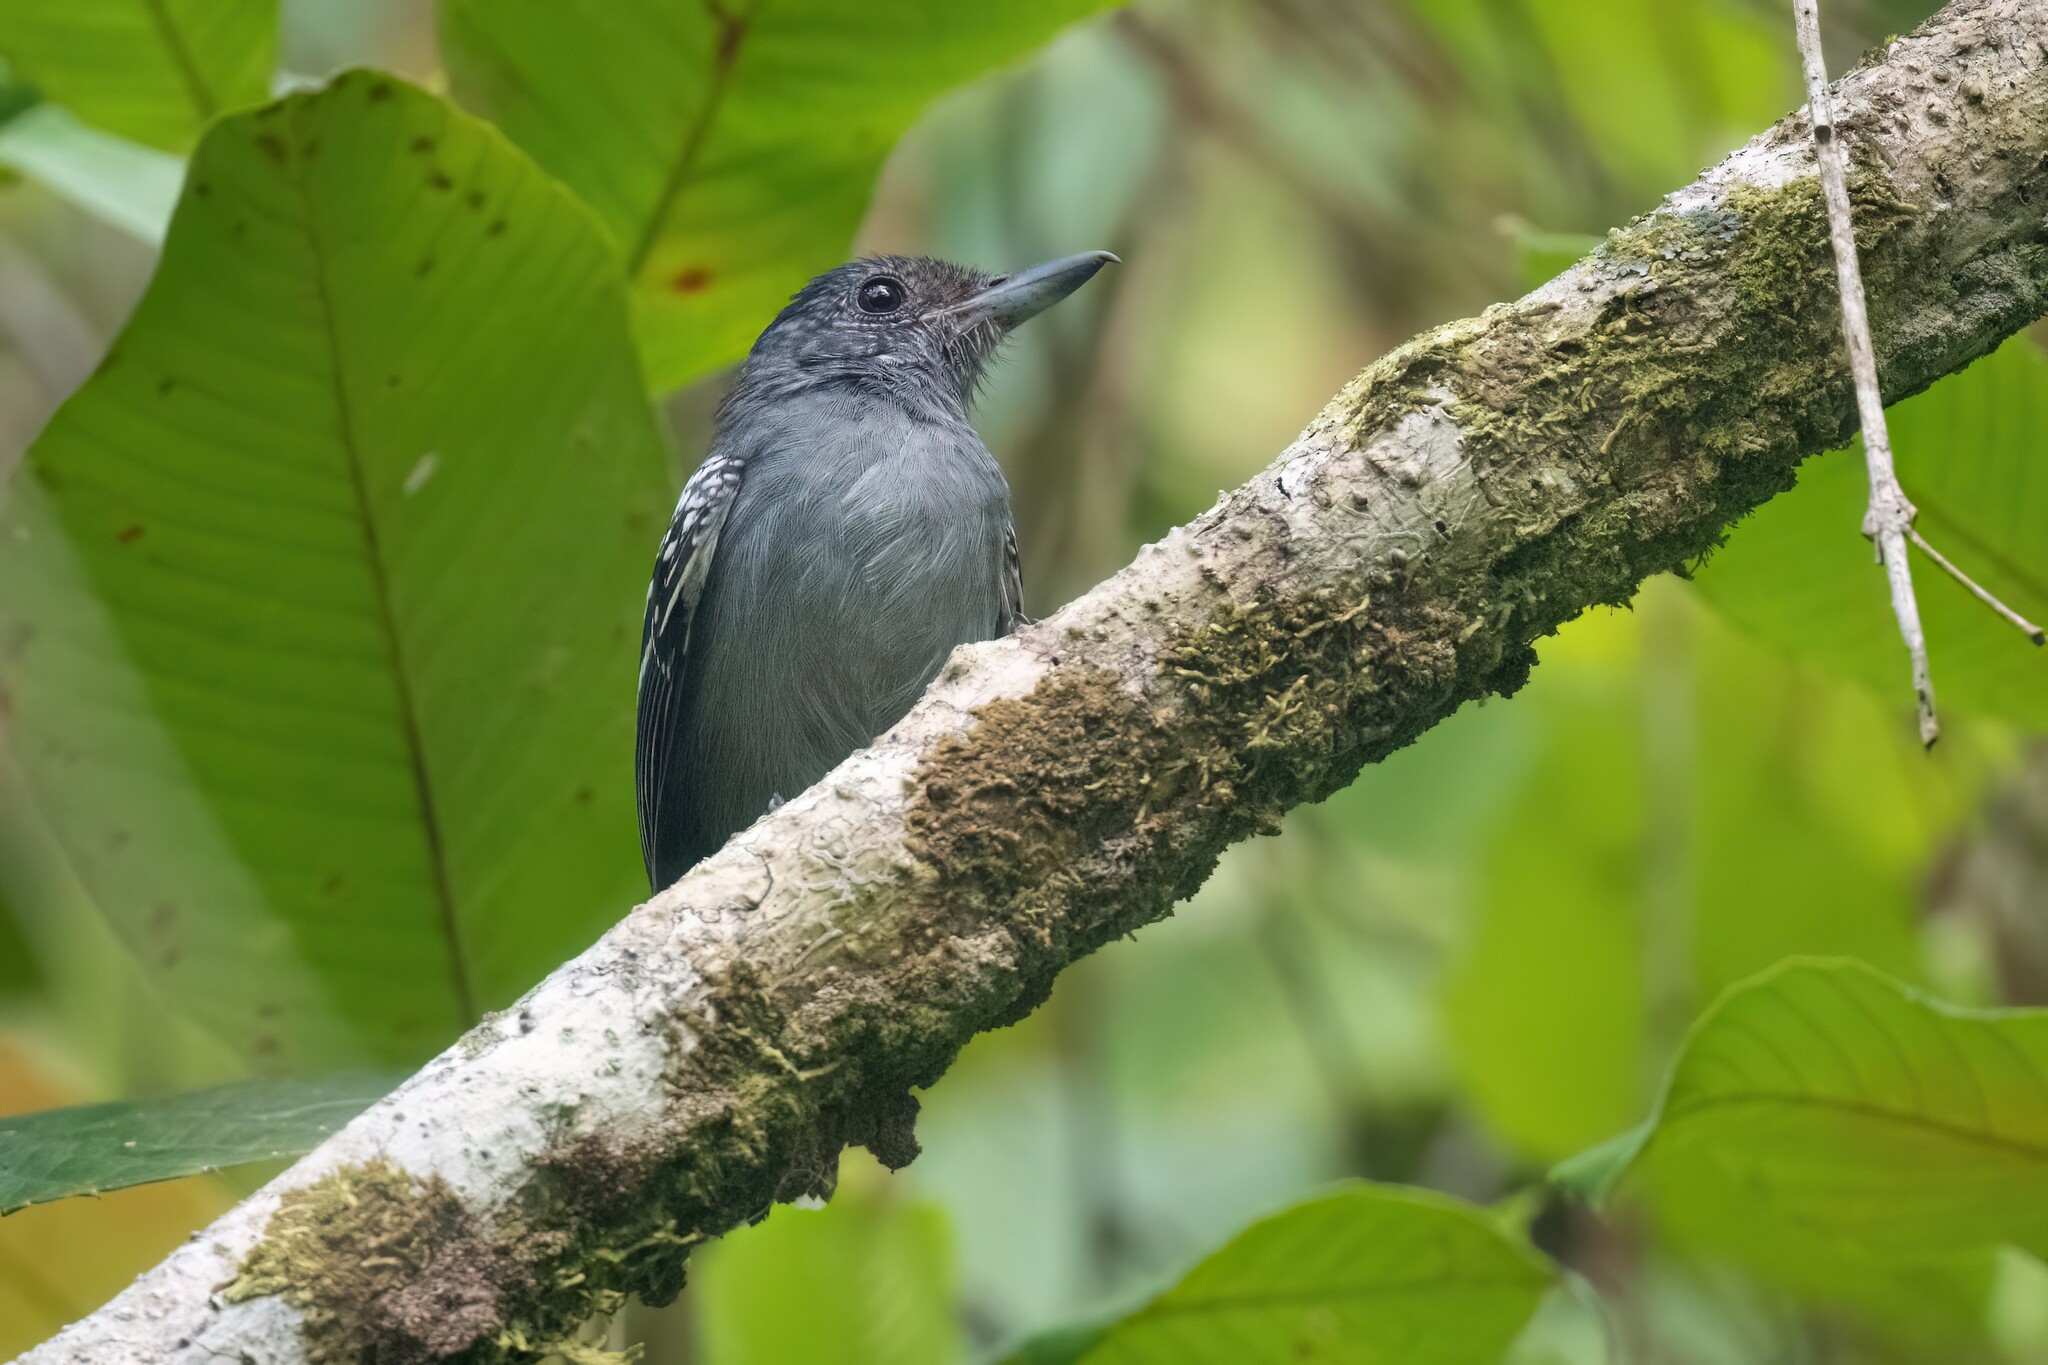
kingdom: Animalia
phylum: Chordata
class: Aves
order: Passeriformes
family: Thamnophilidae
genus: Thamnophilus
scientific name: Thamnophilus atrinucha
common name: Black-crowned antshrike
